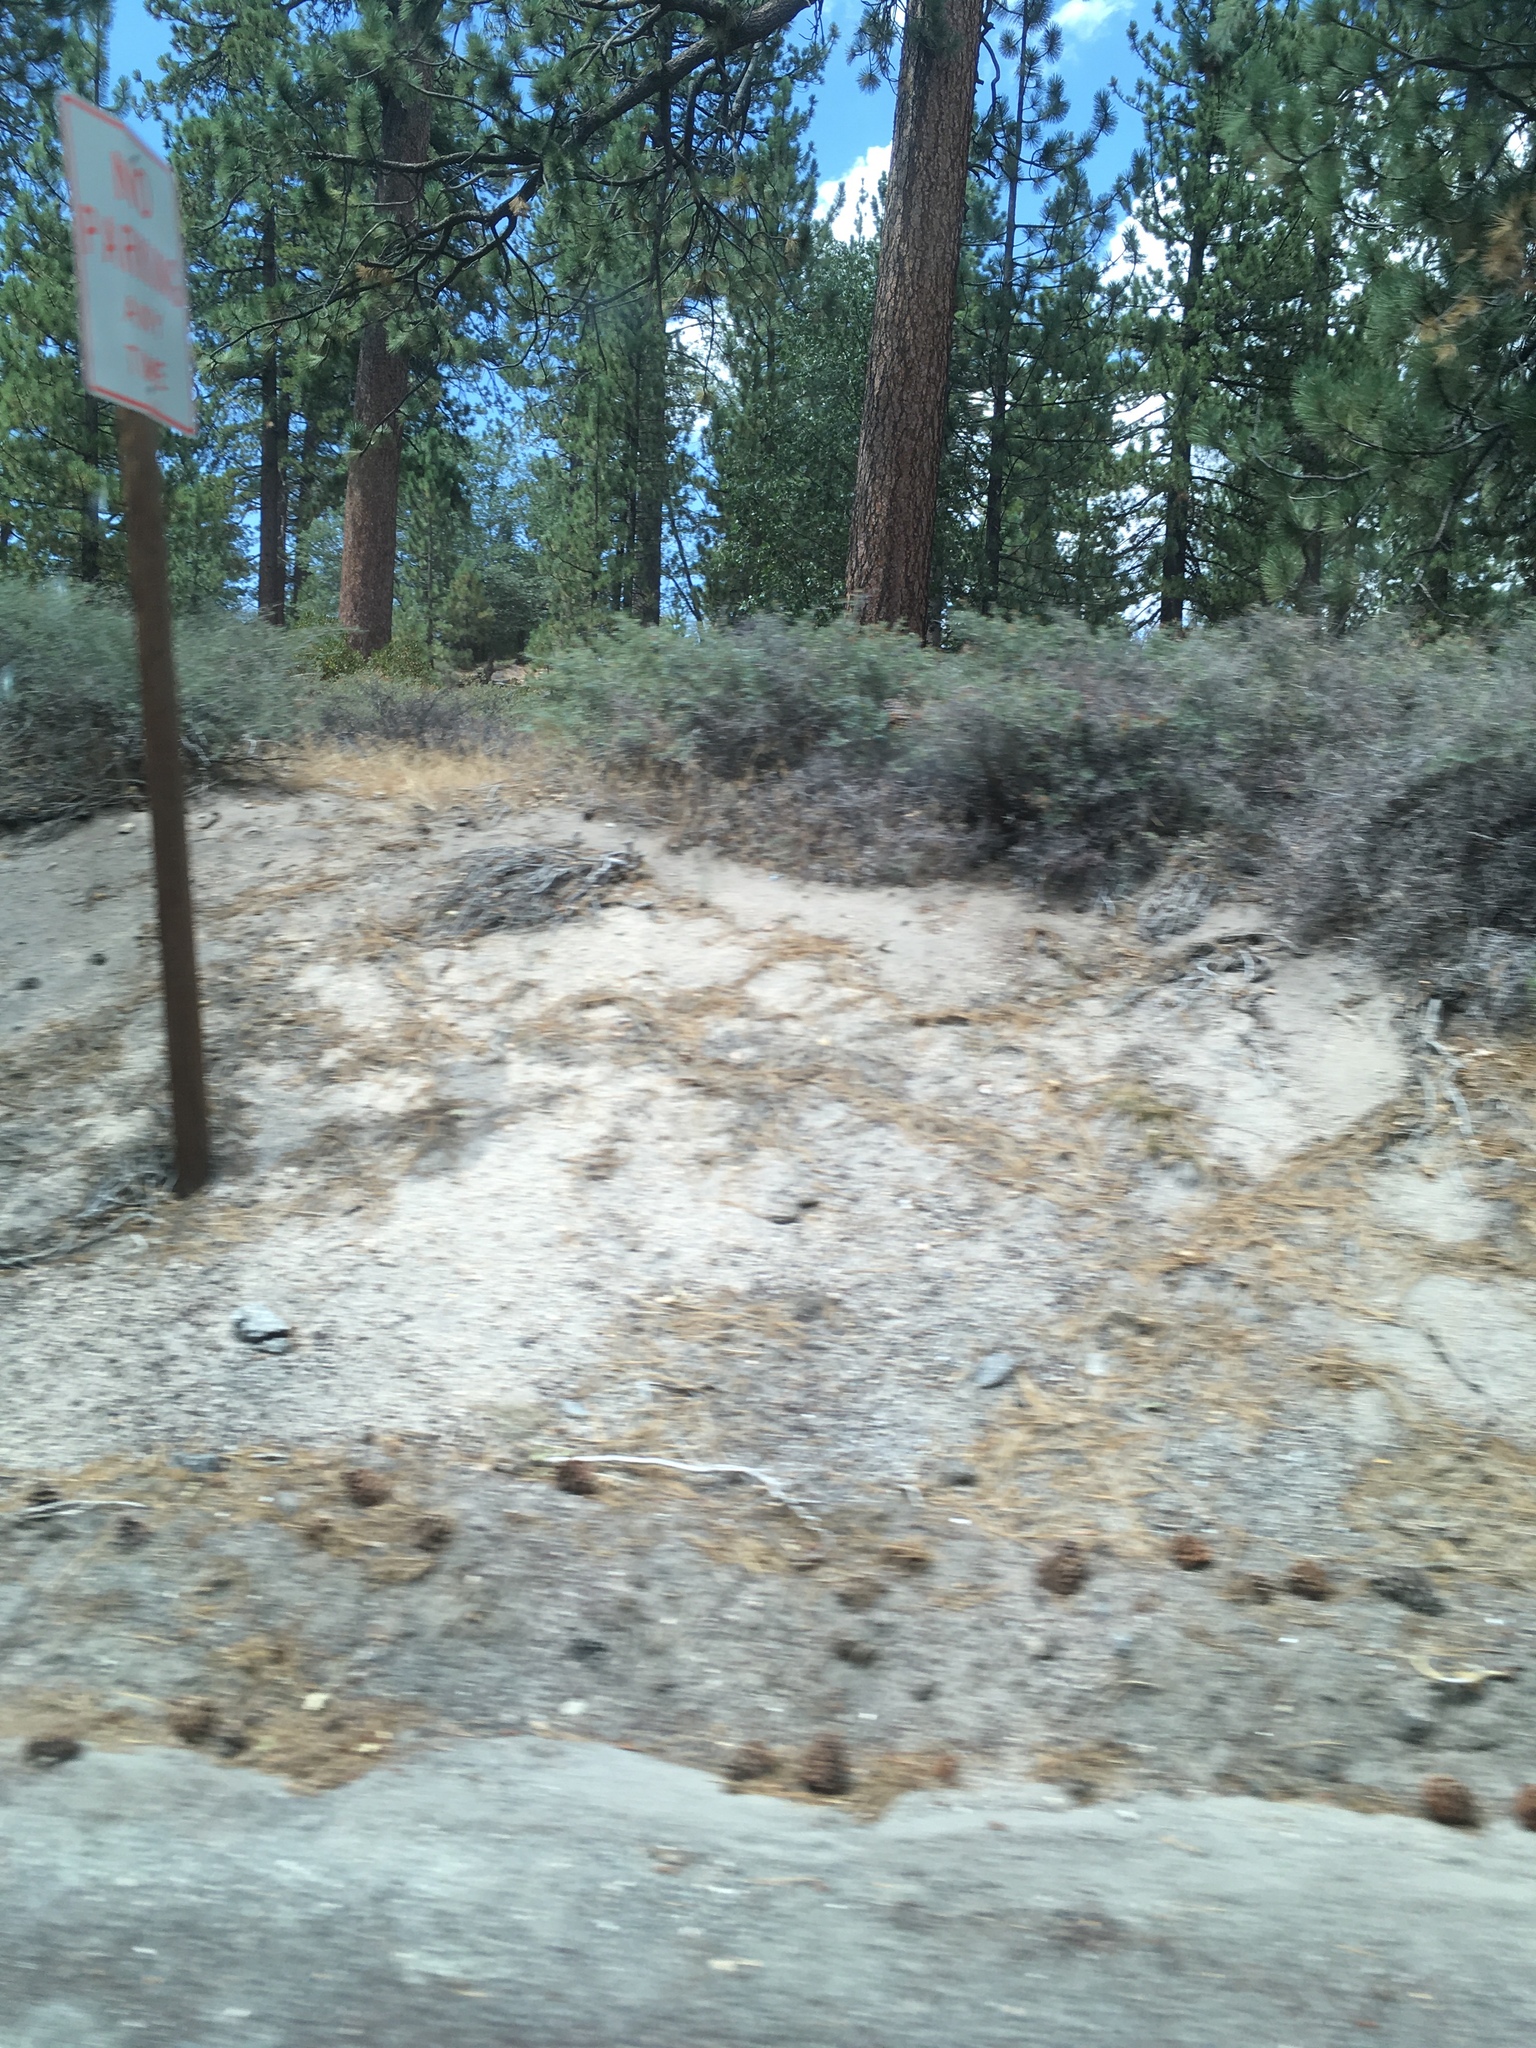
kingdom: Plantae
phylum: Tracheophyta
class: Magnoliopsida
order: Rosales
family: Rhamnaceae
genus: Ceanothus
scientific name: Ceanothus cordulatus
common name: Mountain whitethorn
